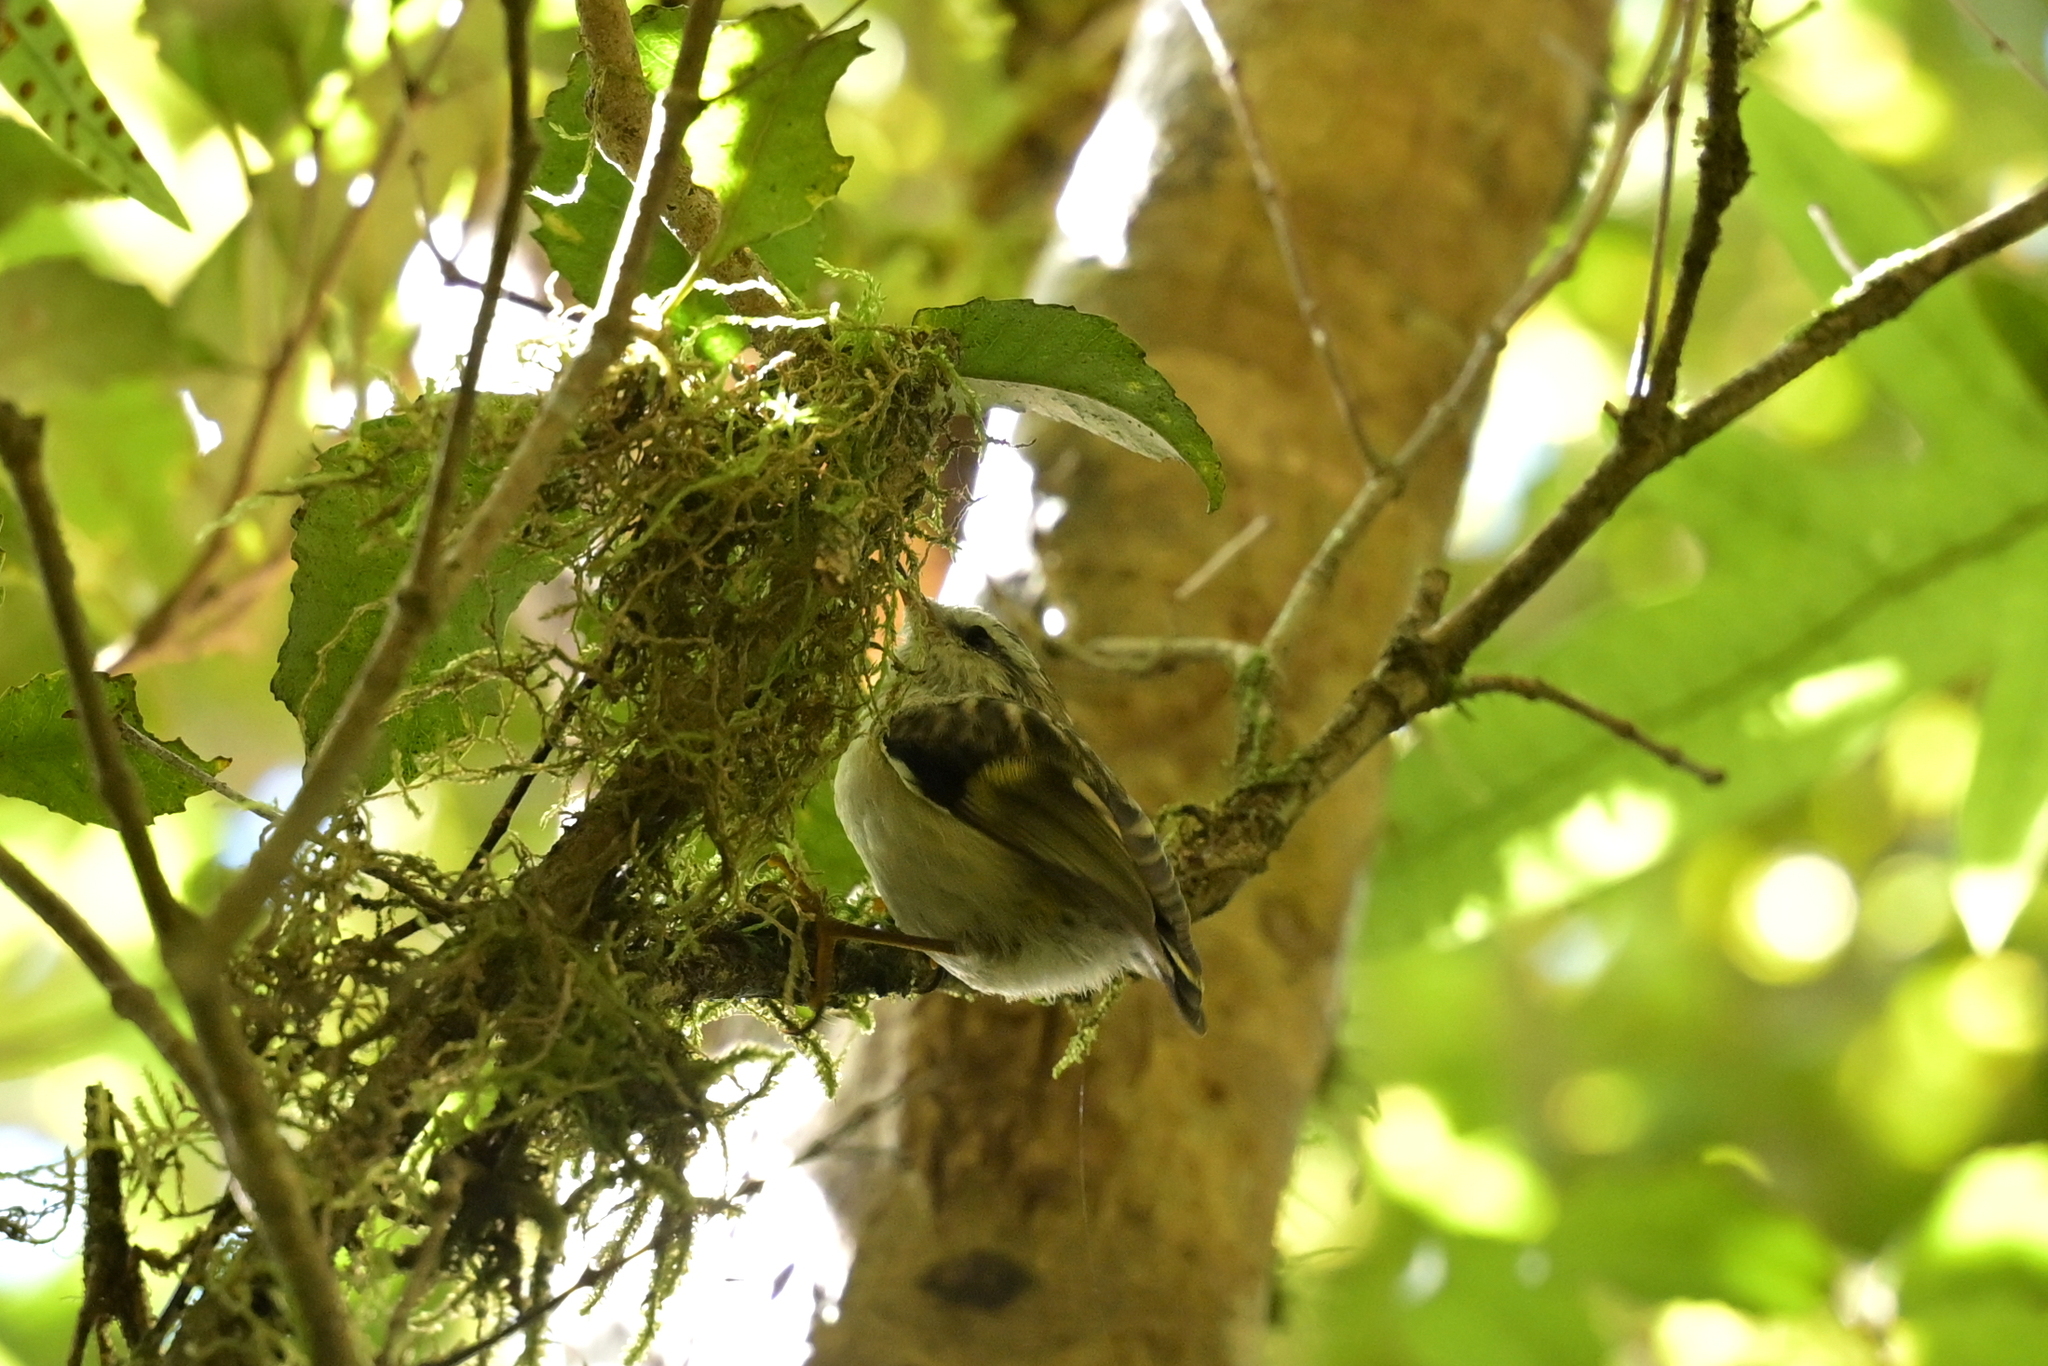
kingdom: Animalia
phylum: Chordata
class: Aves
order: Passeriformes
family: Acanthisittidae
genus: Acanthisitta
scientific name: Acanthisitta chloris
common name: Rifleman
